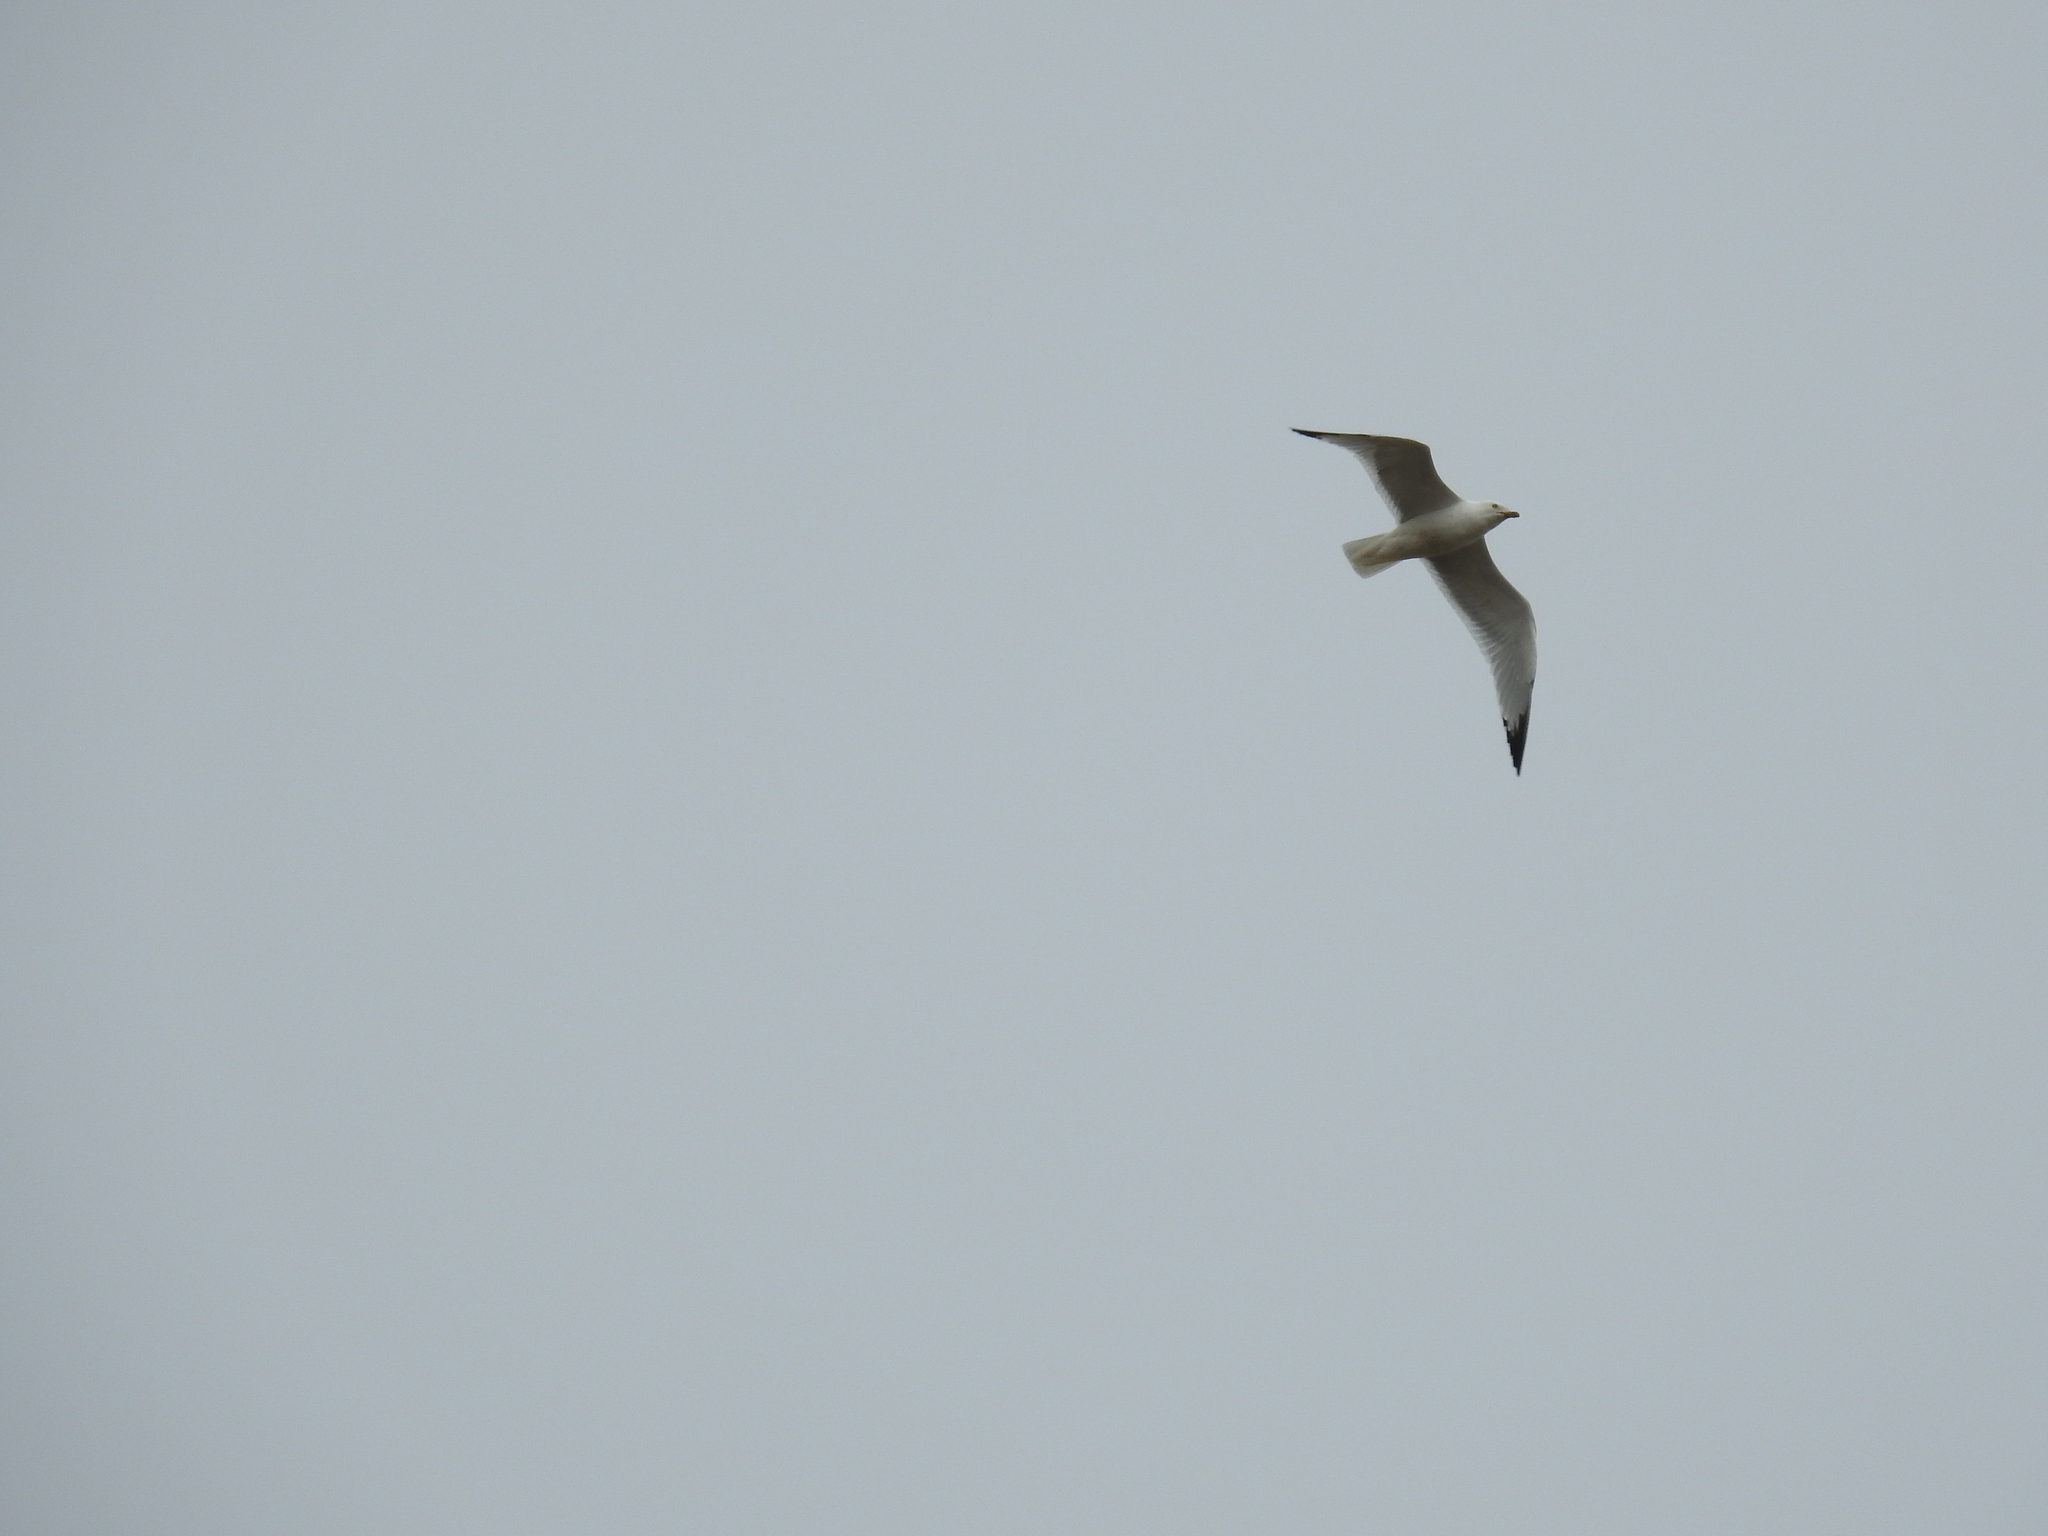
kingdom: Animalia
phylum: Chordata
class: Aves
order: Charadriiformes
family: Laridae
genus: Larus
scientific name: Larus delawarensis
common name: Ring-billed gull
